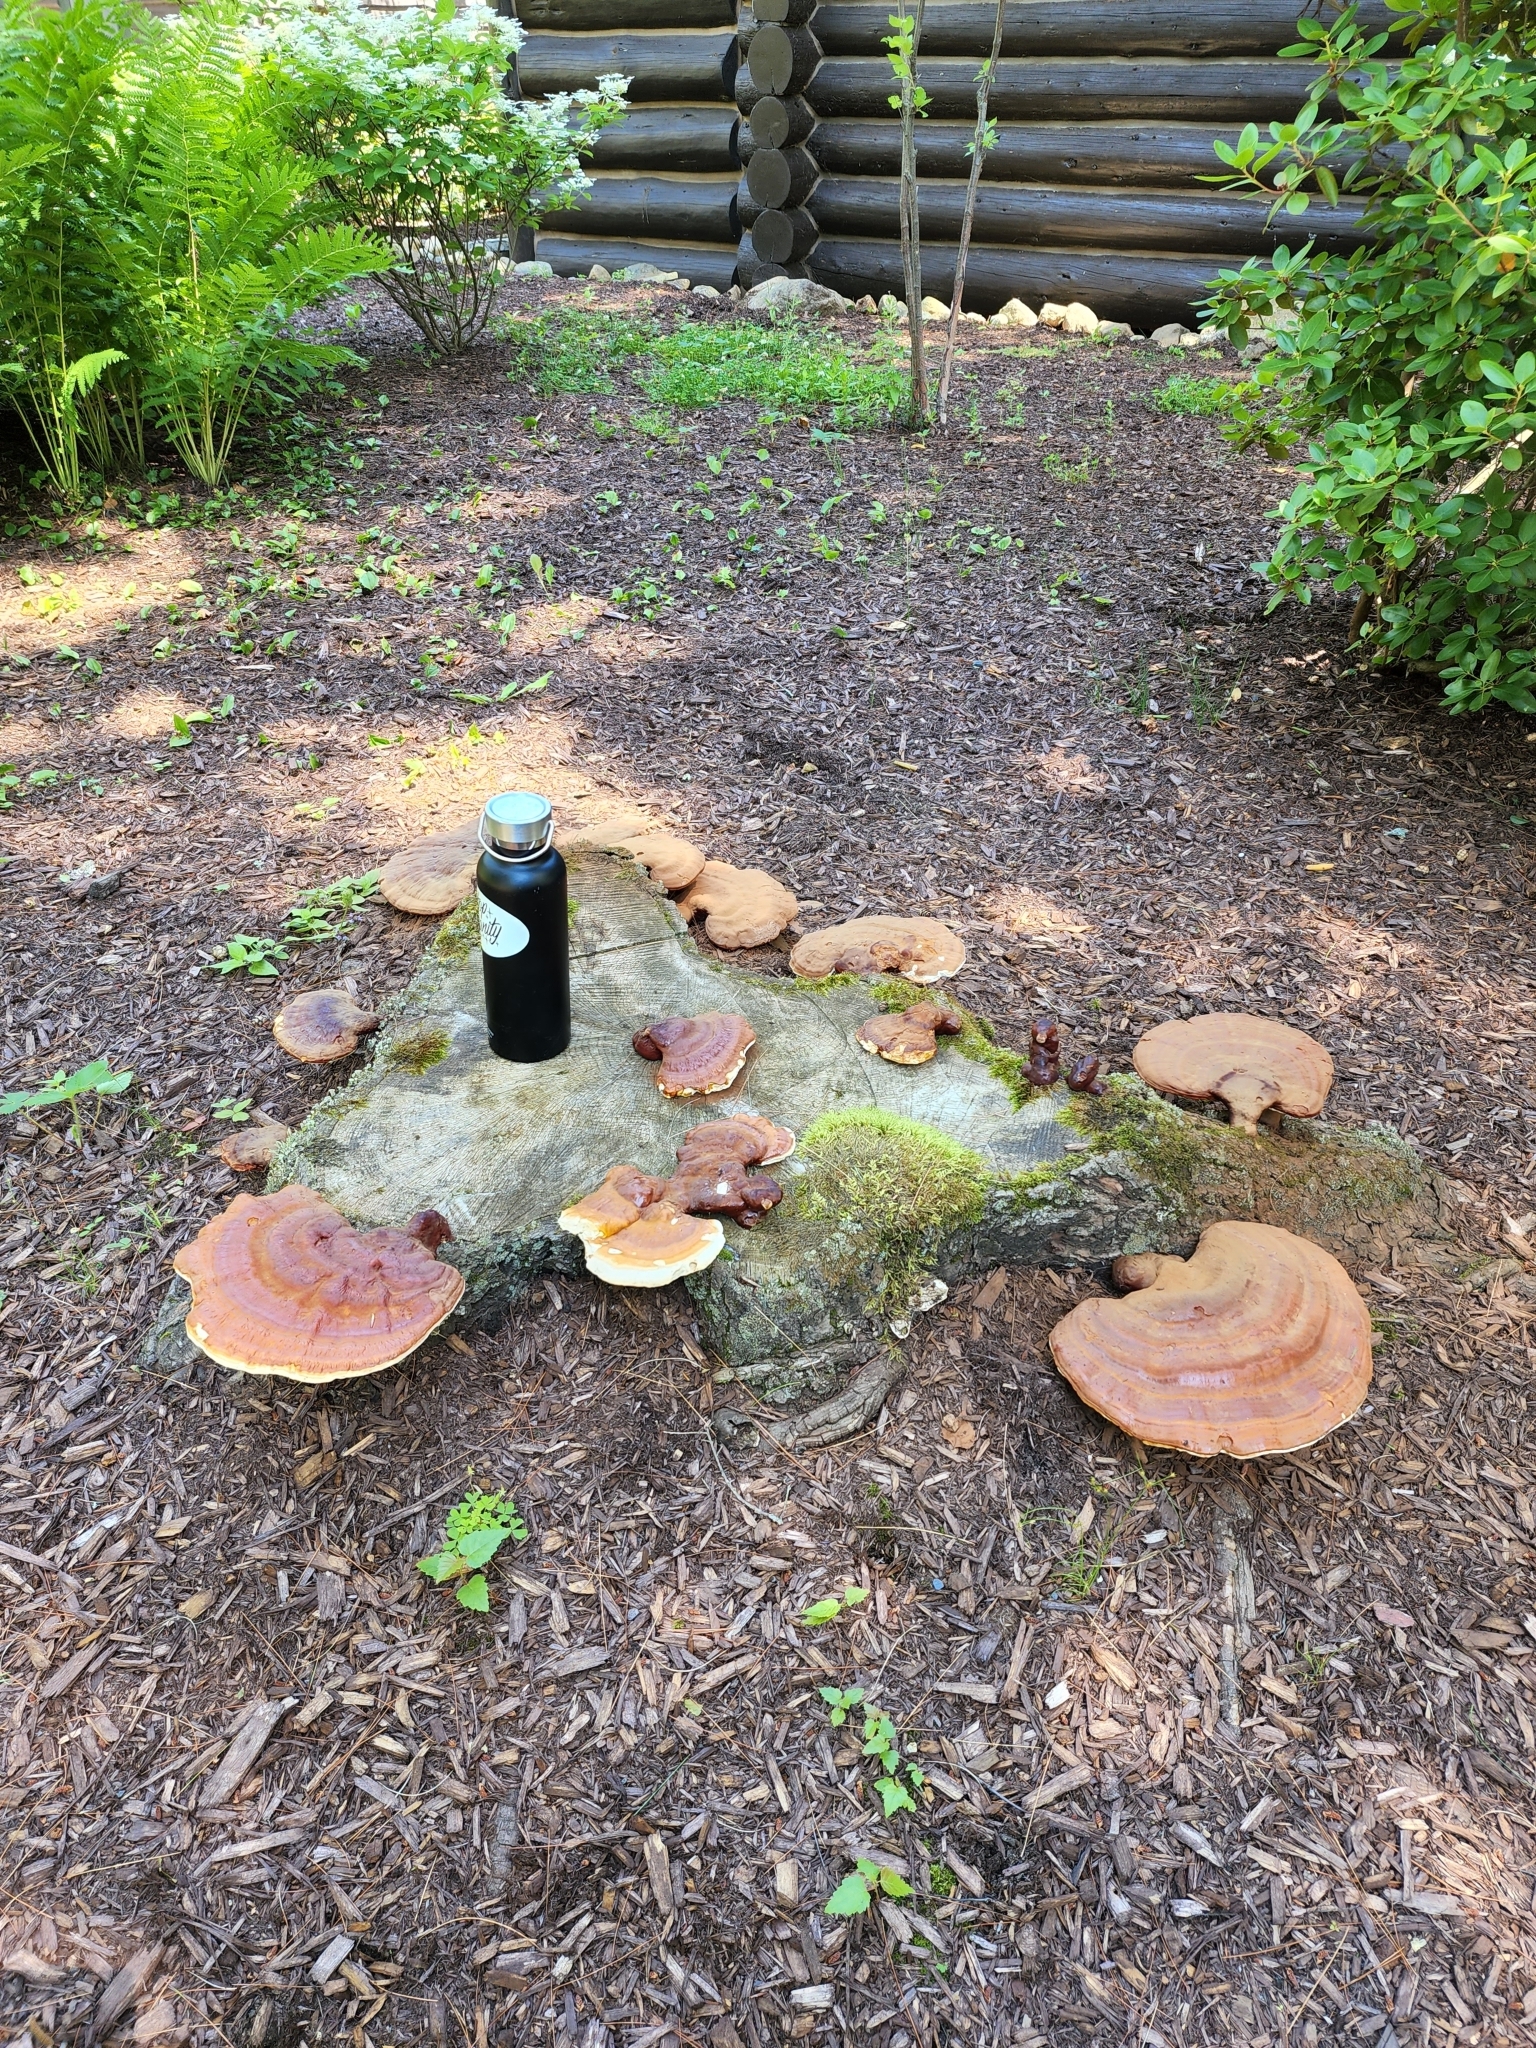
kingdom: Fungi
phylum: Basidiomycota
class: Agaricomycetes
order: Polyporales
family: Polyporaceae
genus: Ganoderma
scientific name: Ganoderma tsugae
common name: Hemlock varnish shelf
